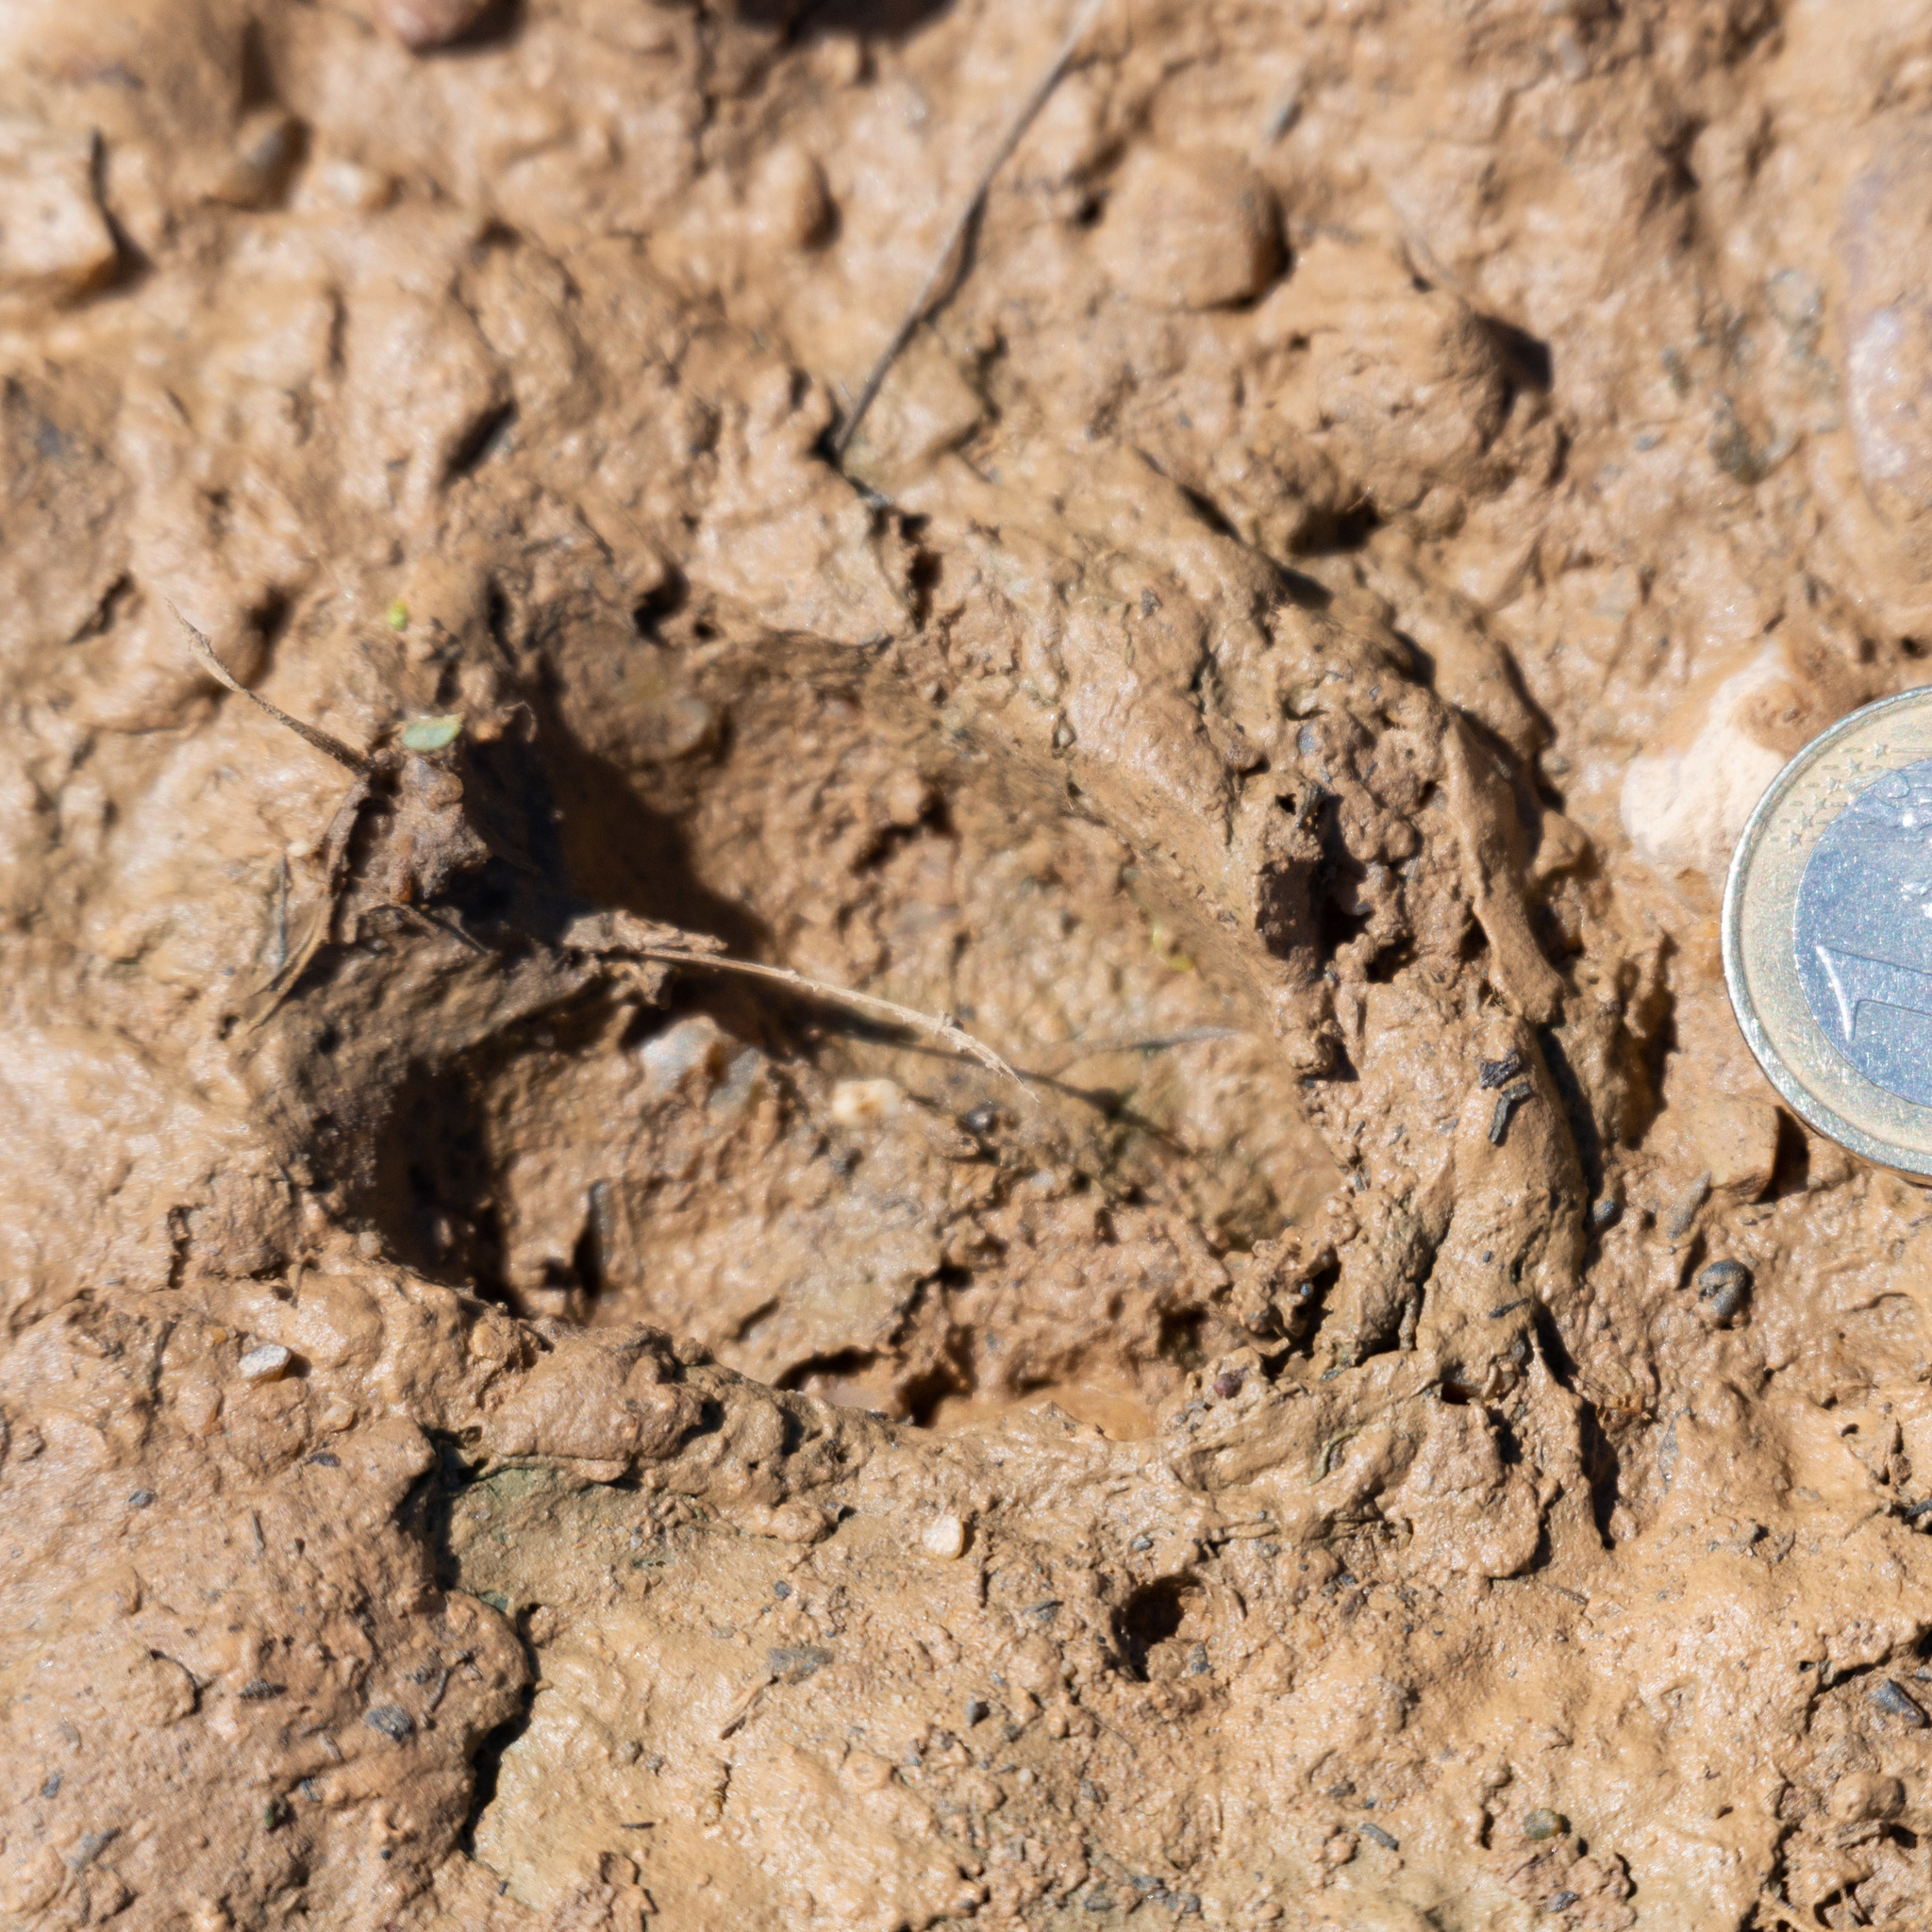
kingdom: Animalia
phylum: Chordata
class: Mammalia
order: Artiodactyla
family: Cervidae
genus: Capreolus
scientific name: Capreolus capreolus
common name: Western roe deer
